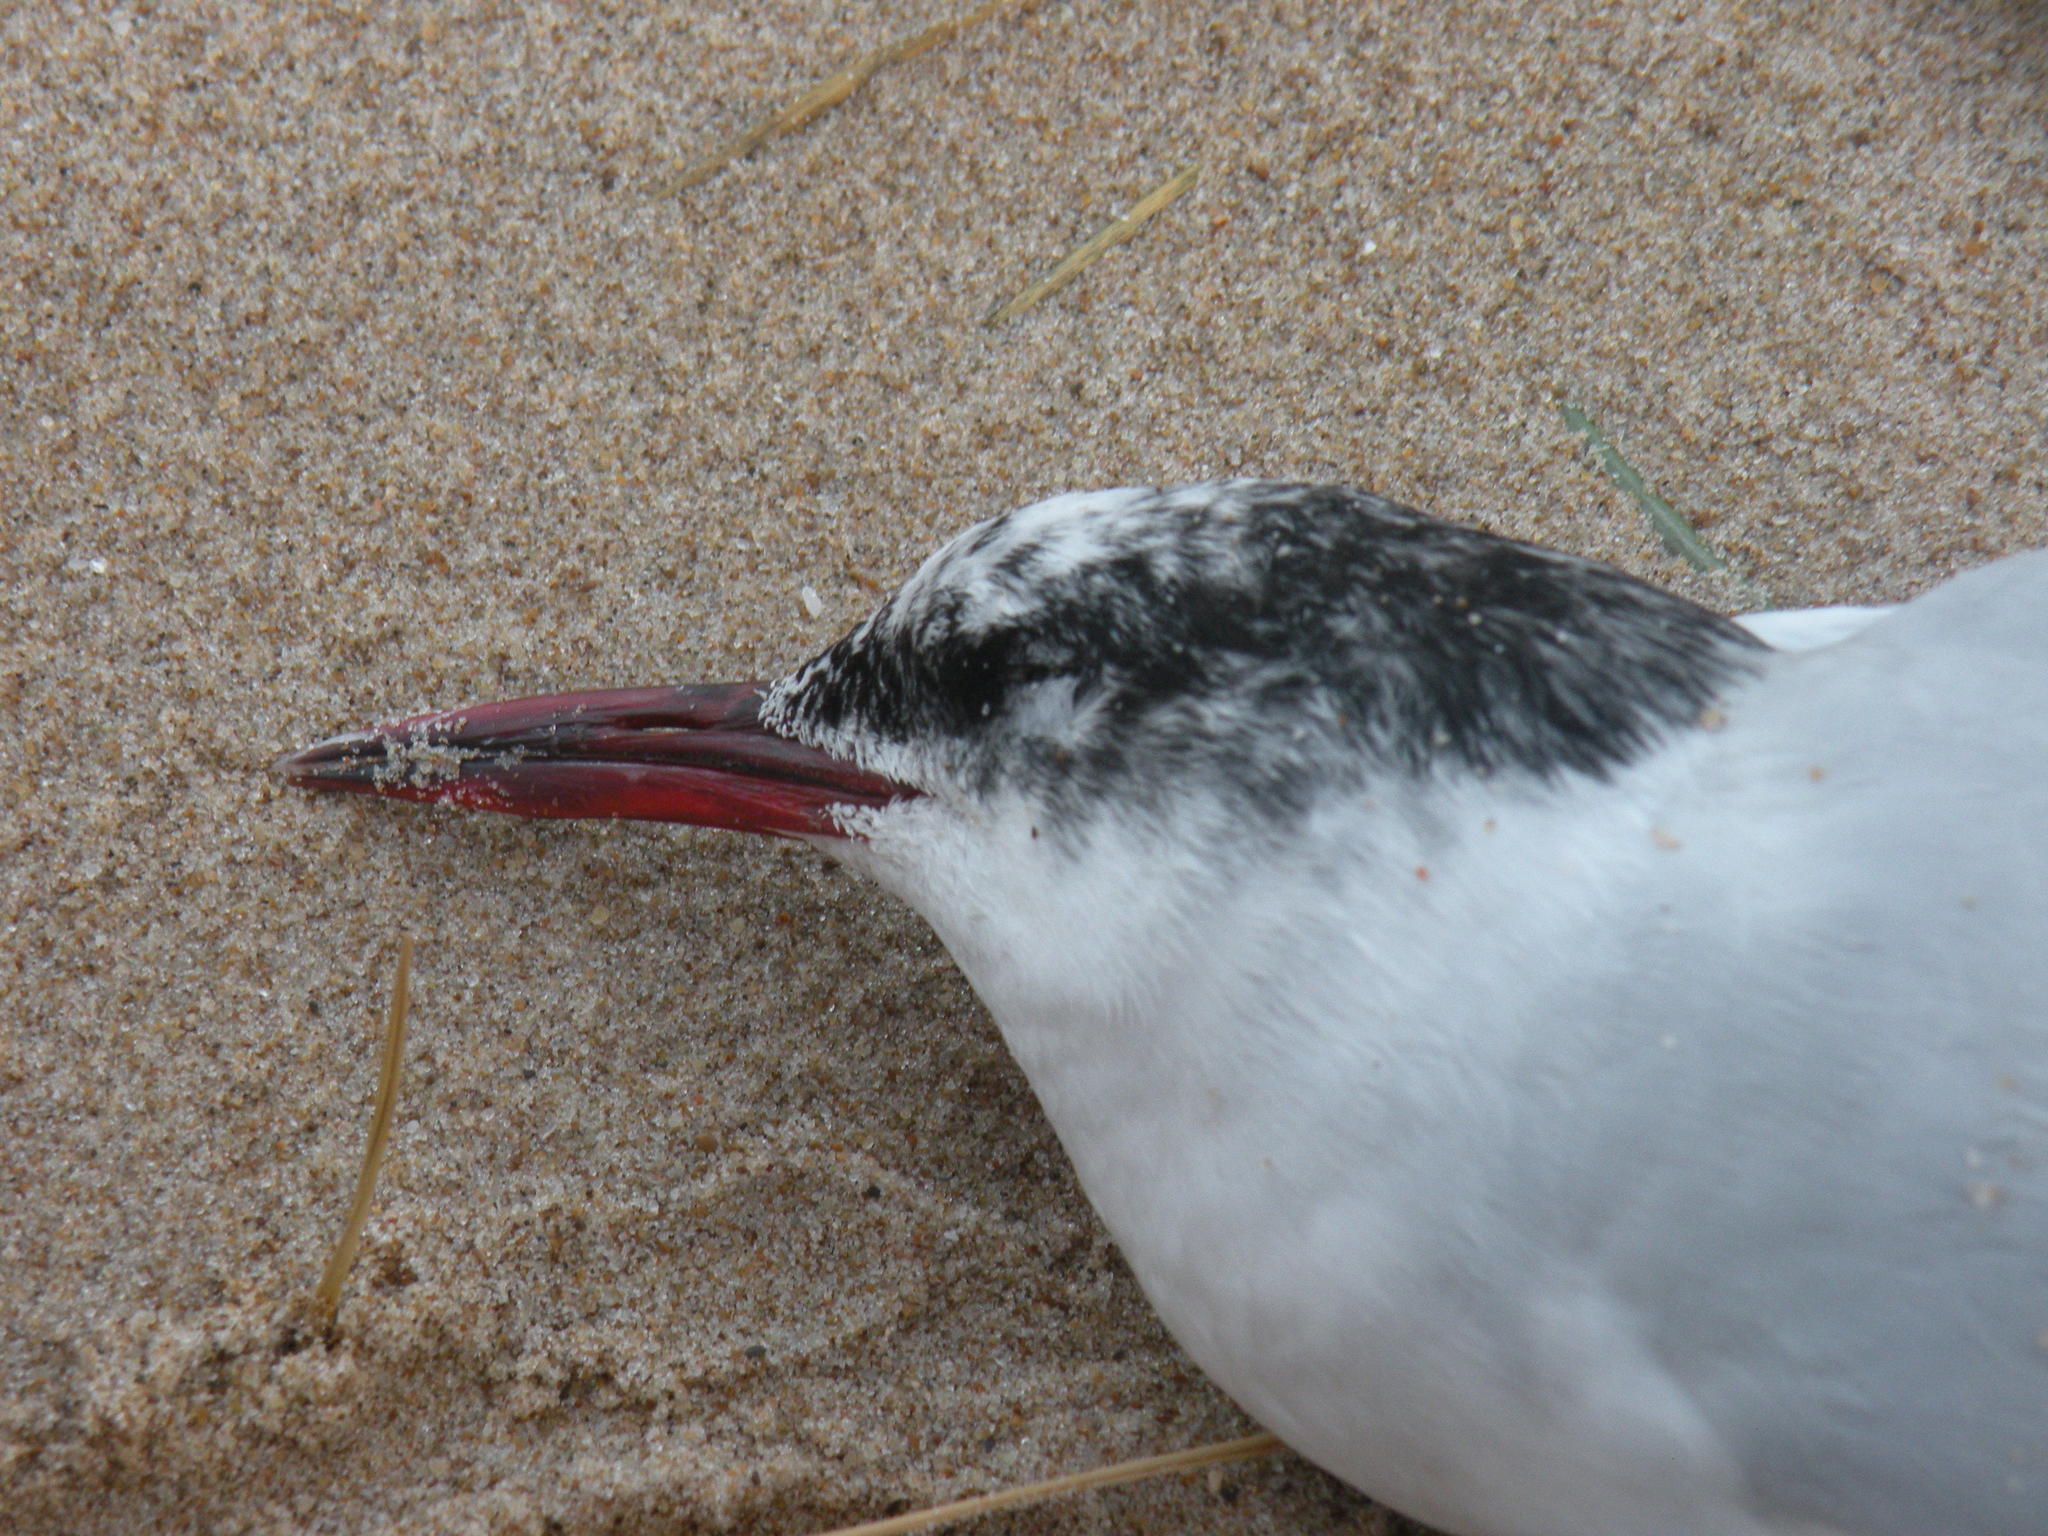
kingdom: Animalia
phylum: Chordata
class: Aves
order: Charadriiformes
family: Laridae
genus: Sterna
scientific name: Sterna hirundinacea
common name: South american tern
